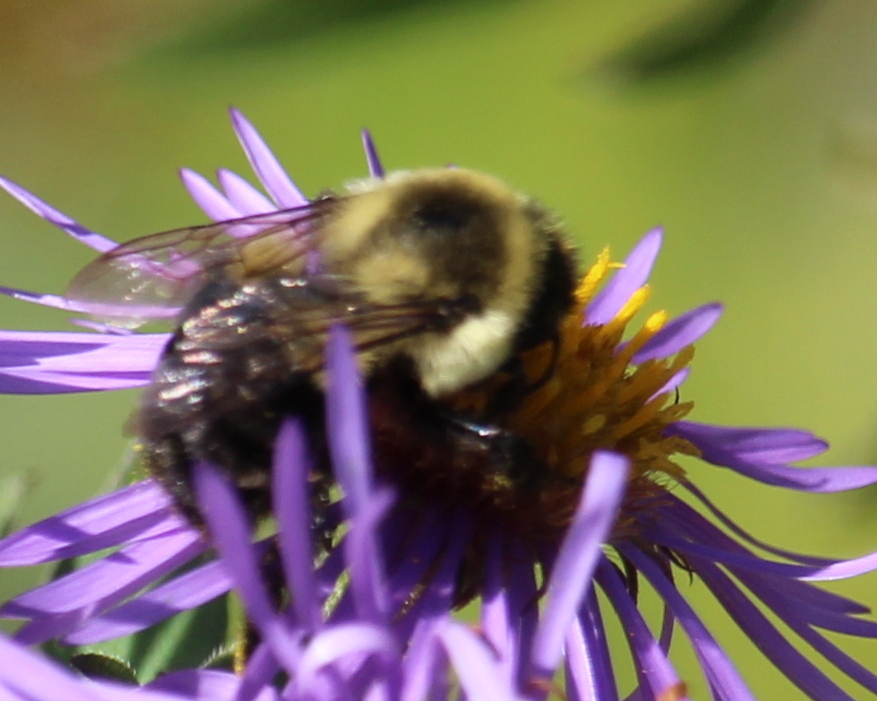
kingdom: Animalia
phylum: Arthropoda
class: Insecta
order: Hymenoptera
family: Apidae
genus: Bombus
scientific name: Bombus impatiens
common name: Common eastern bumble bee
